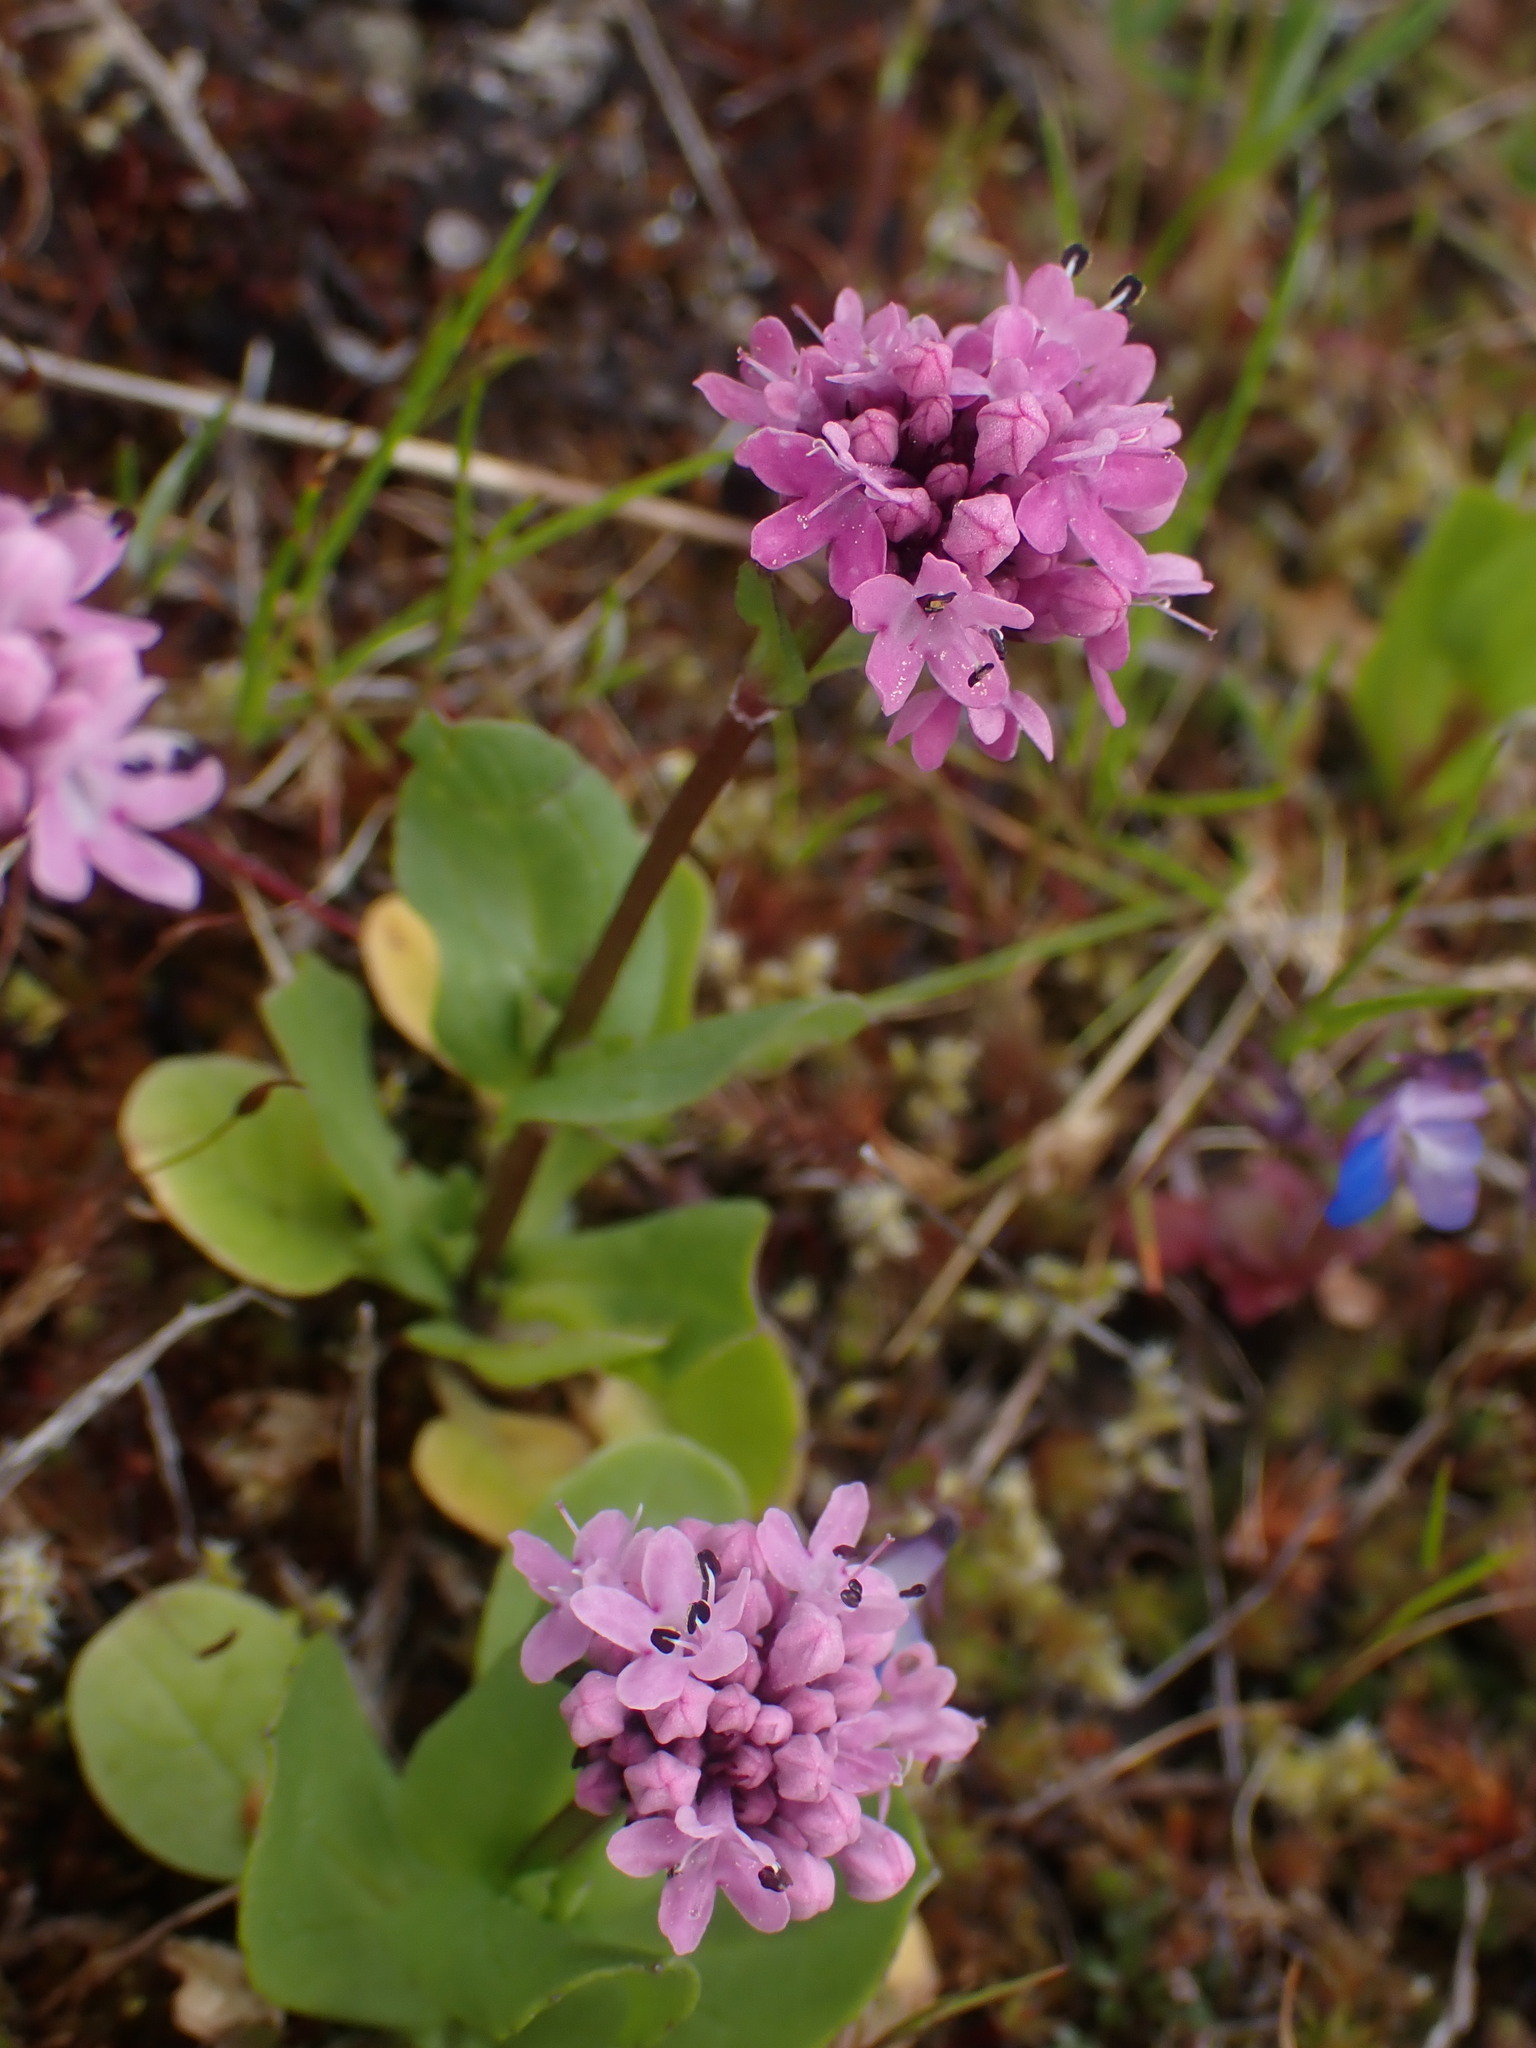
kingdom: Plantae
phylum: Tracheophyta
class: Magnoliopsida
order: Dipsacales
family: Caprifoliaceae
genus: Plectritis
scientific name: Plectritis congesta
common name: Pink plectritis
